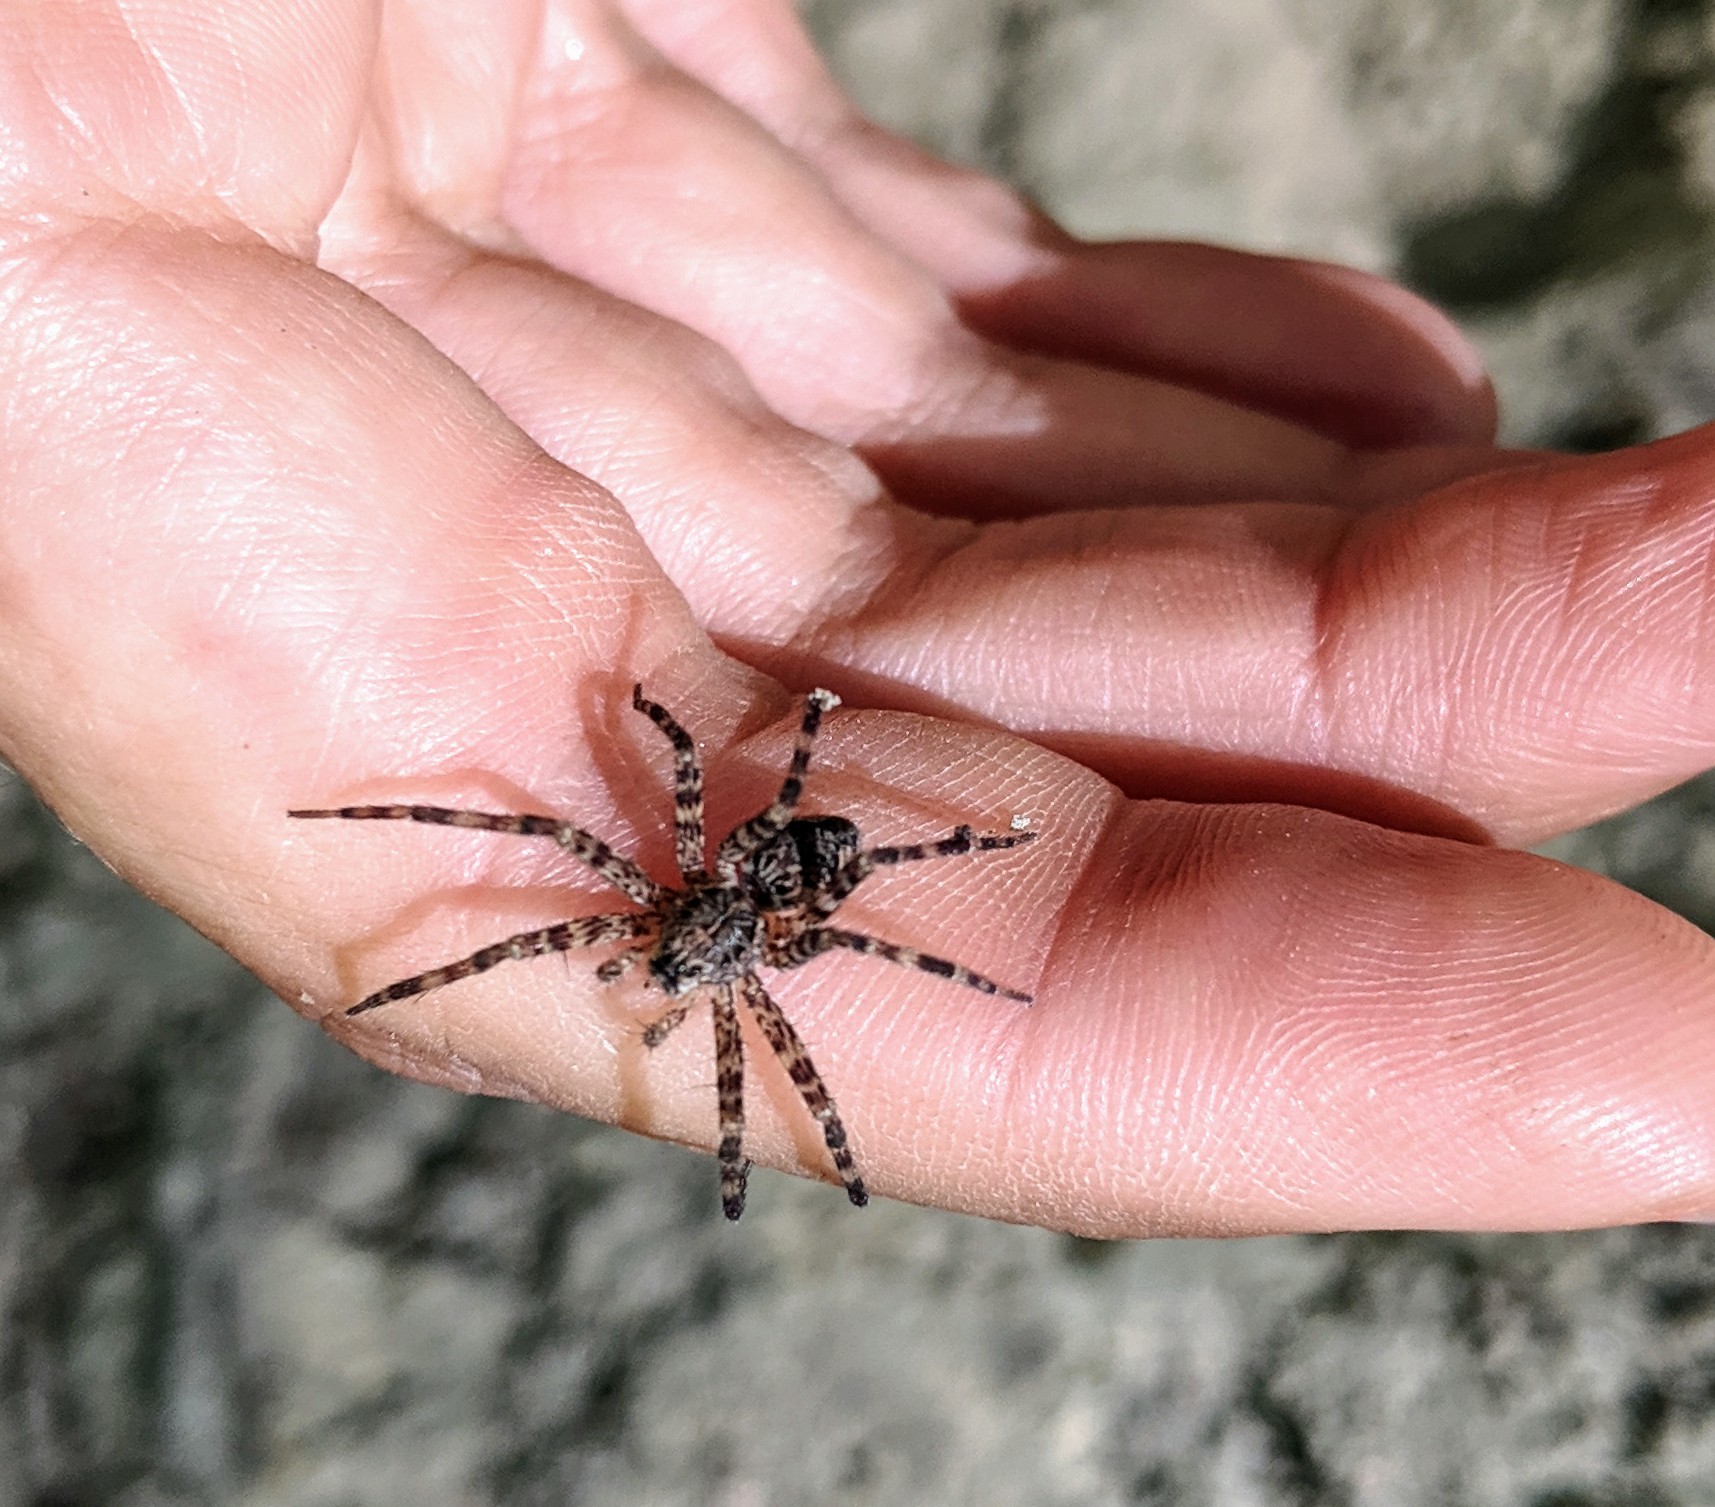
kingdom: Animalia
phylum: Arthropoda
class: Arachnida
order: Araneae
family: Pisauridae
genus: Dolomedes
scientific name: Dolomedes tenebrosus
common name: Dark fishing spider
